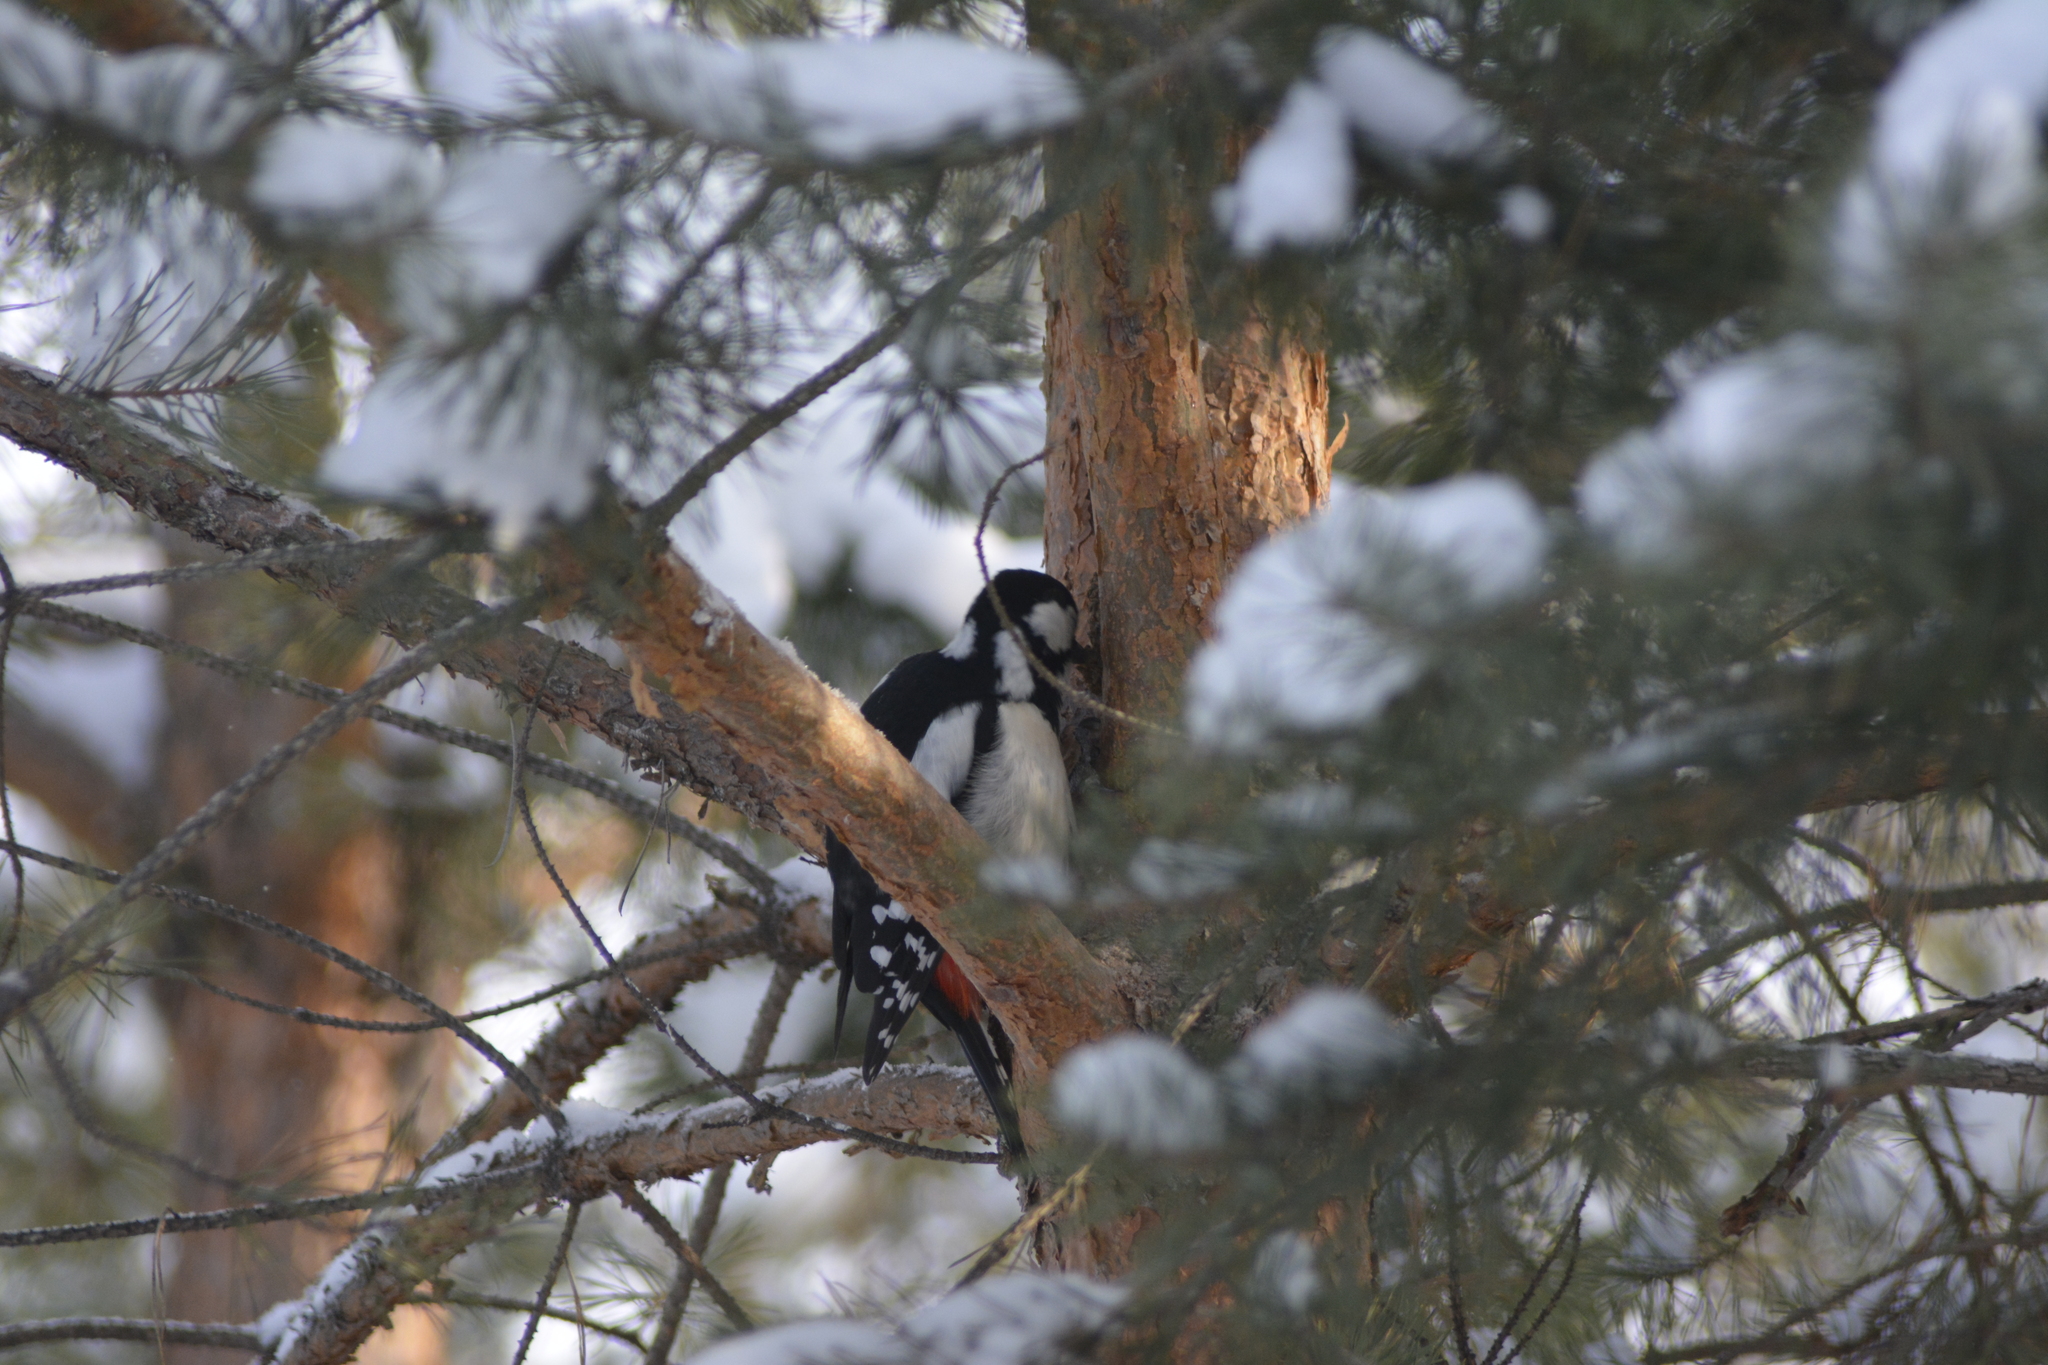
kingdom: Animalia
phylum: Chordata
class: Aves
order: Piciformes
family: Picidae
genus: Dendrocopos
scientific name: Dendrocopos major
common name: Great spotted woodpecker
